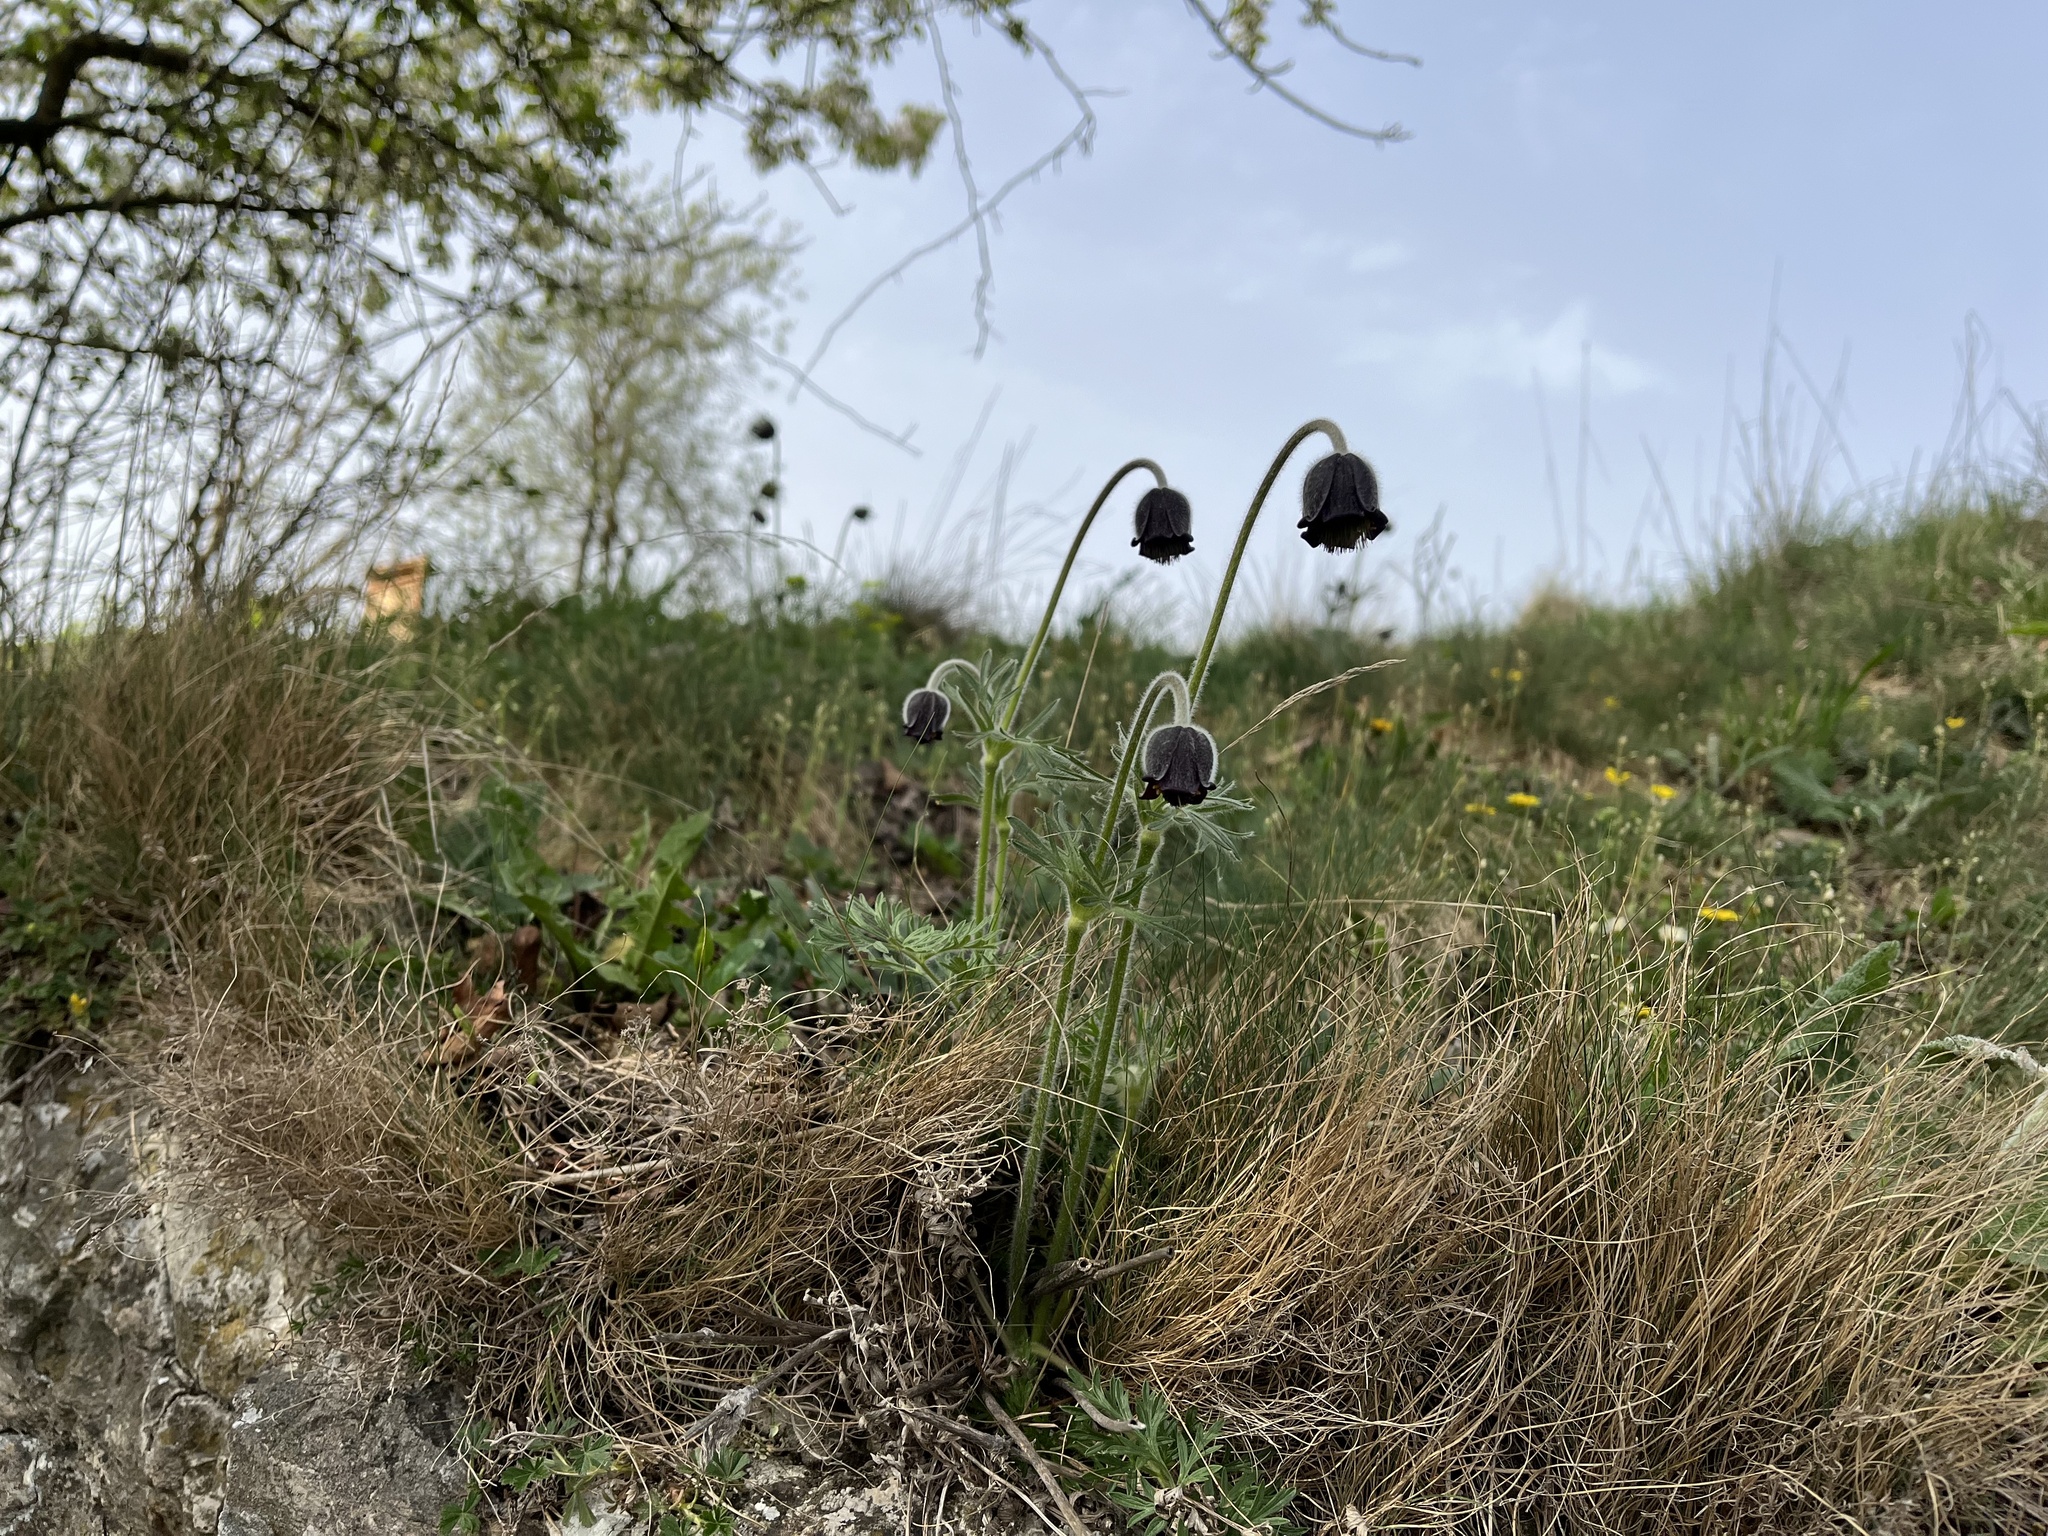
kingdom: Plantae
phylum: Tracheophyta
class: Magnoliopsida
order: Ranunculales
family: Ranunculaceae
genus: Pulsatilla
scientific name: Pulsatilla pratensis
